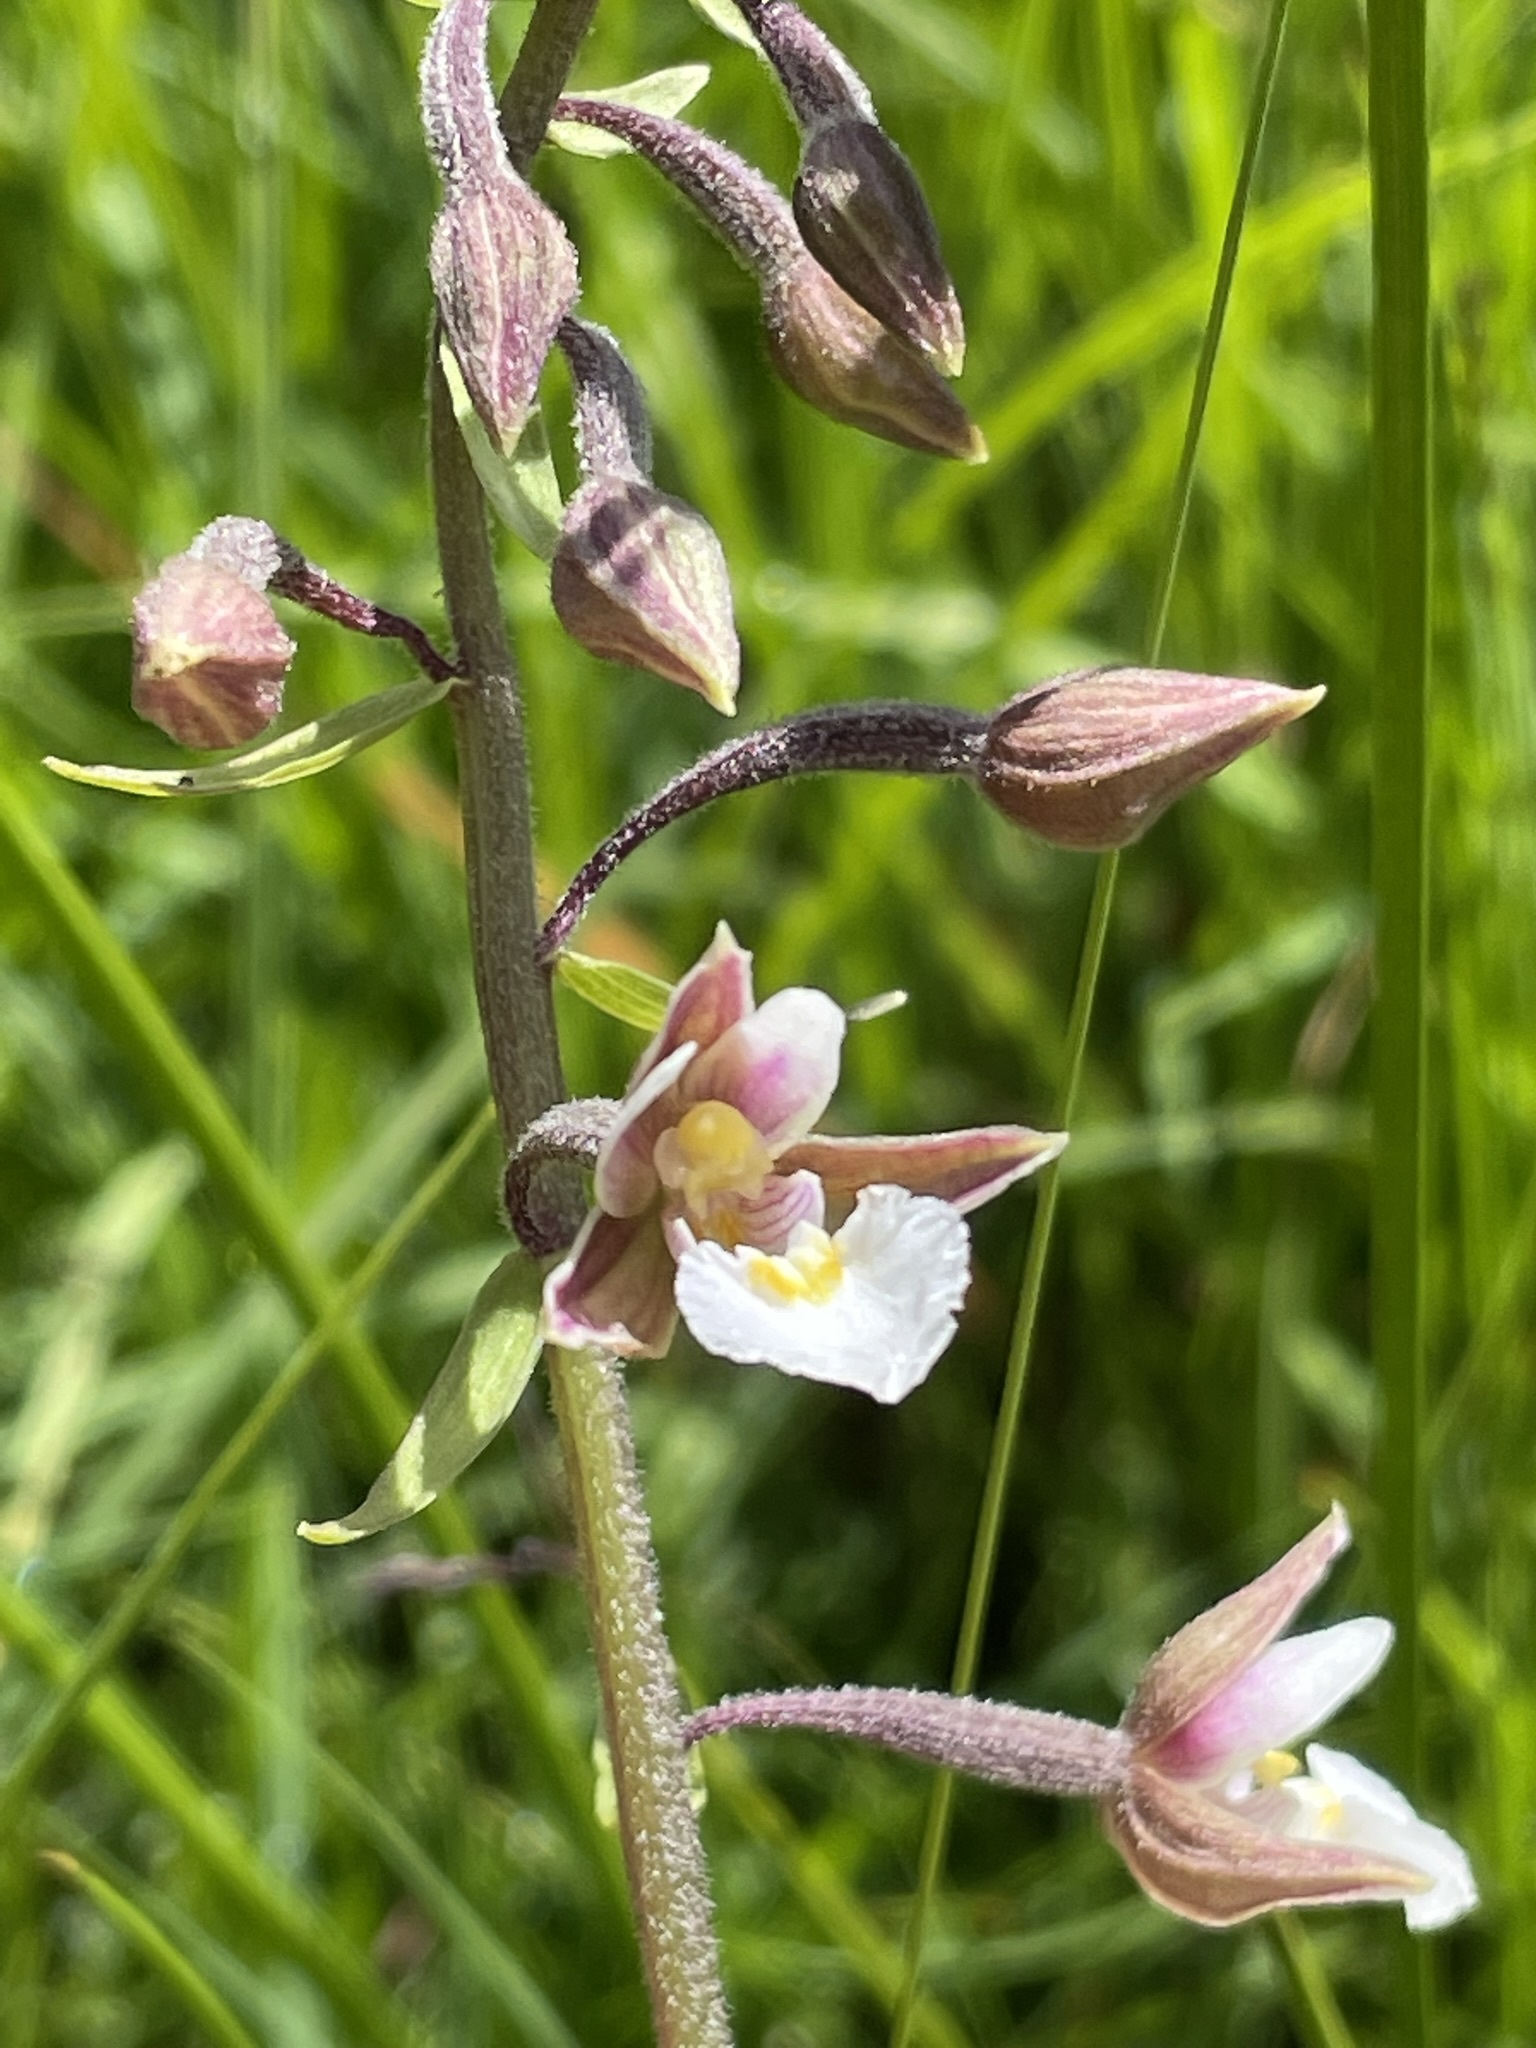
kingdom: Plantae
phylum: Tracheophyta
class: Liliopsida
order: Asparagales
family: Orchidaceae
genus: Epipactis
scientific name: Epipactis palustris
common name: Marsh helleborine
